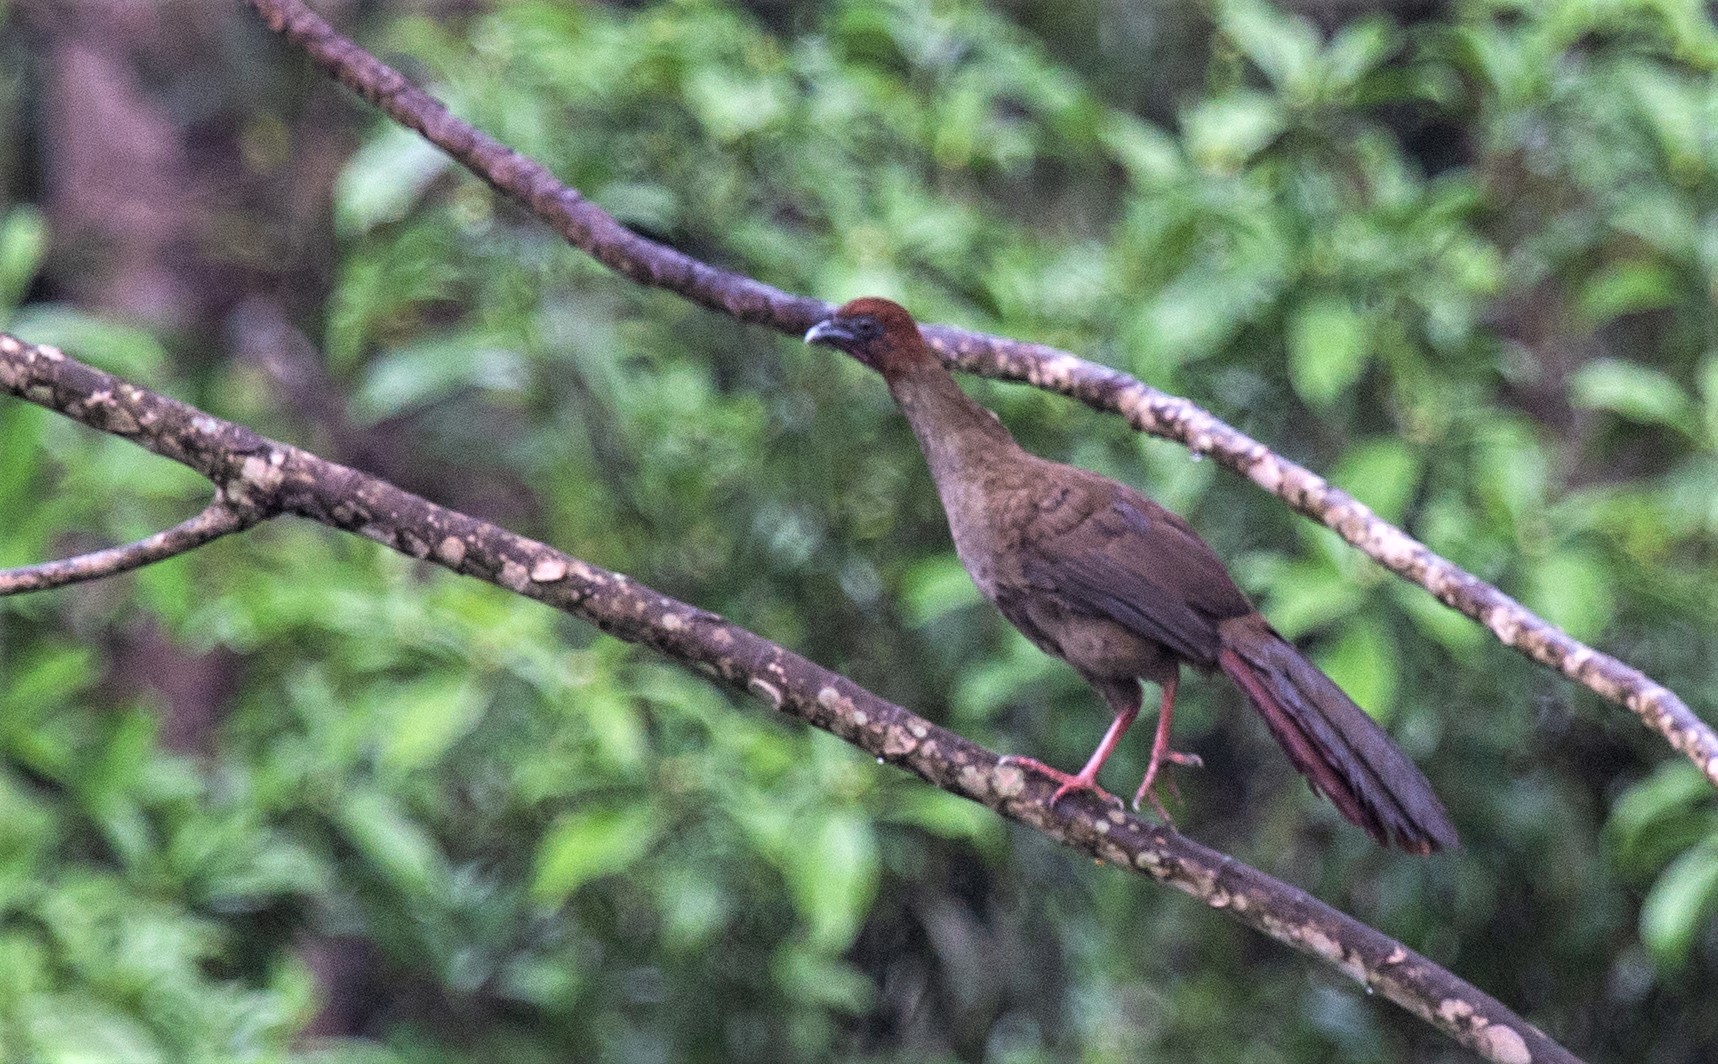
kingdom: Animalia
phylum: Chordata
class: Aves
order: Galliformes
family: Cracidae
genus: Ortalis
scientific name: Ortalis motmot
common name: Little chachalaca
